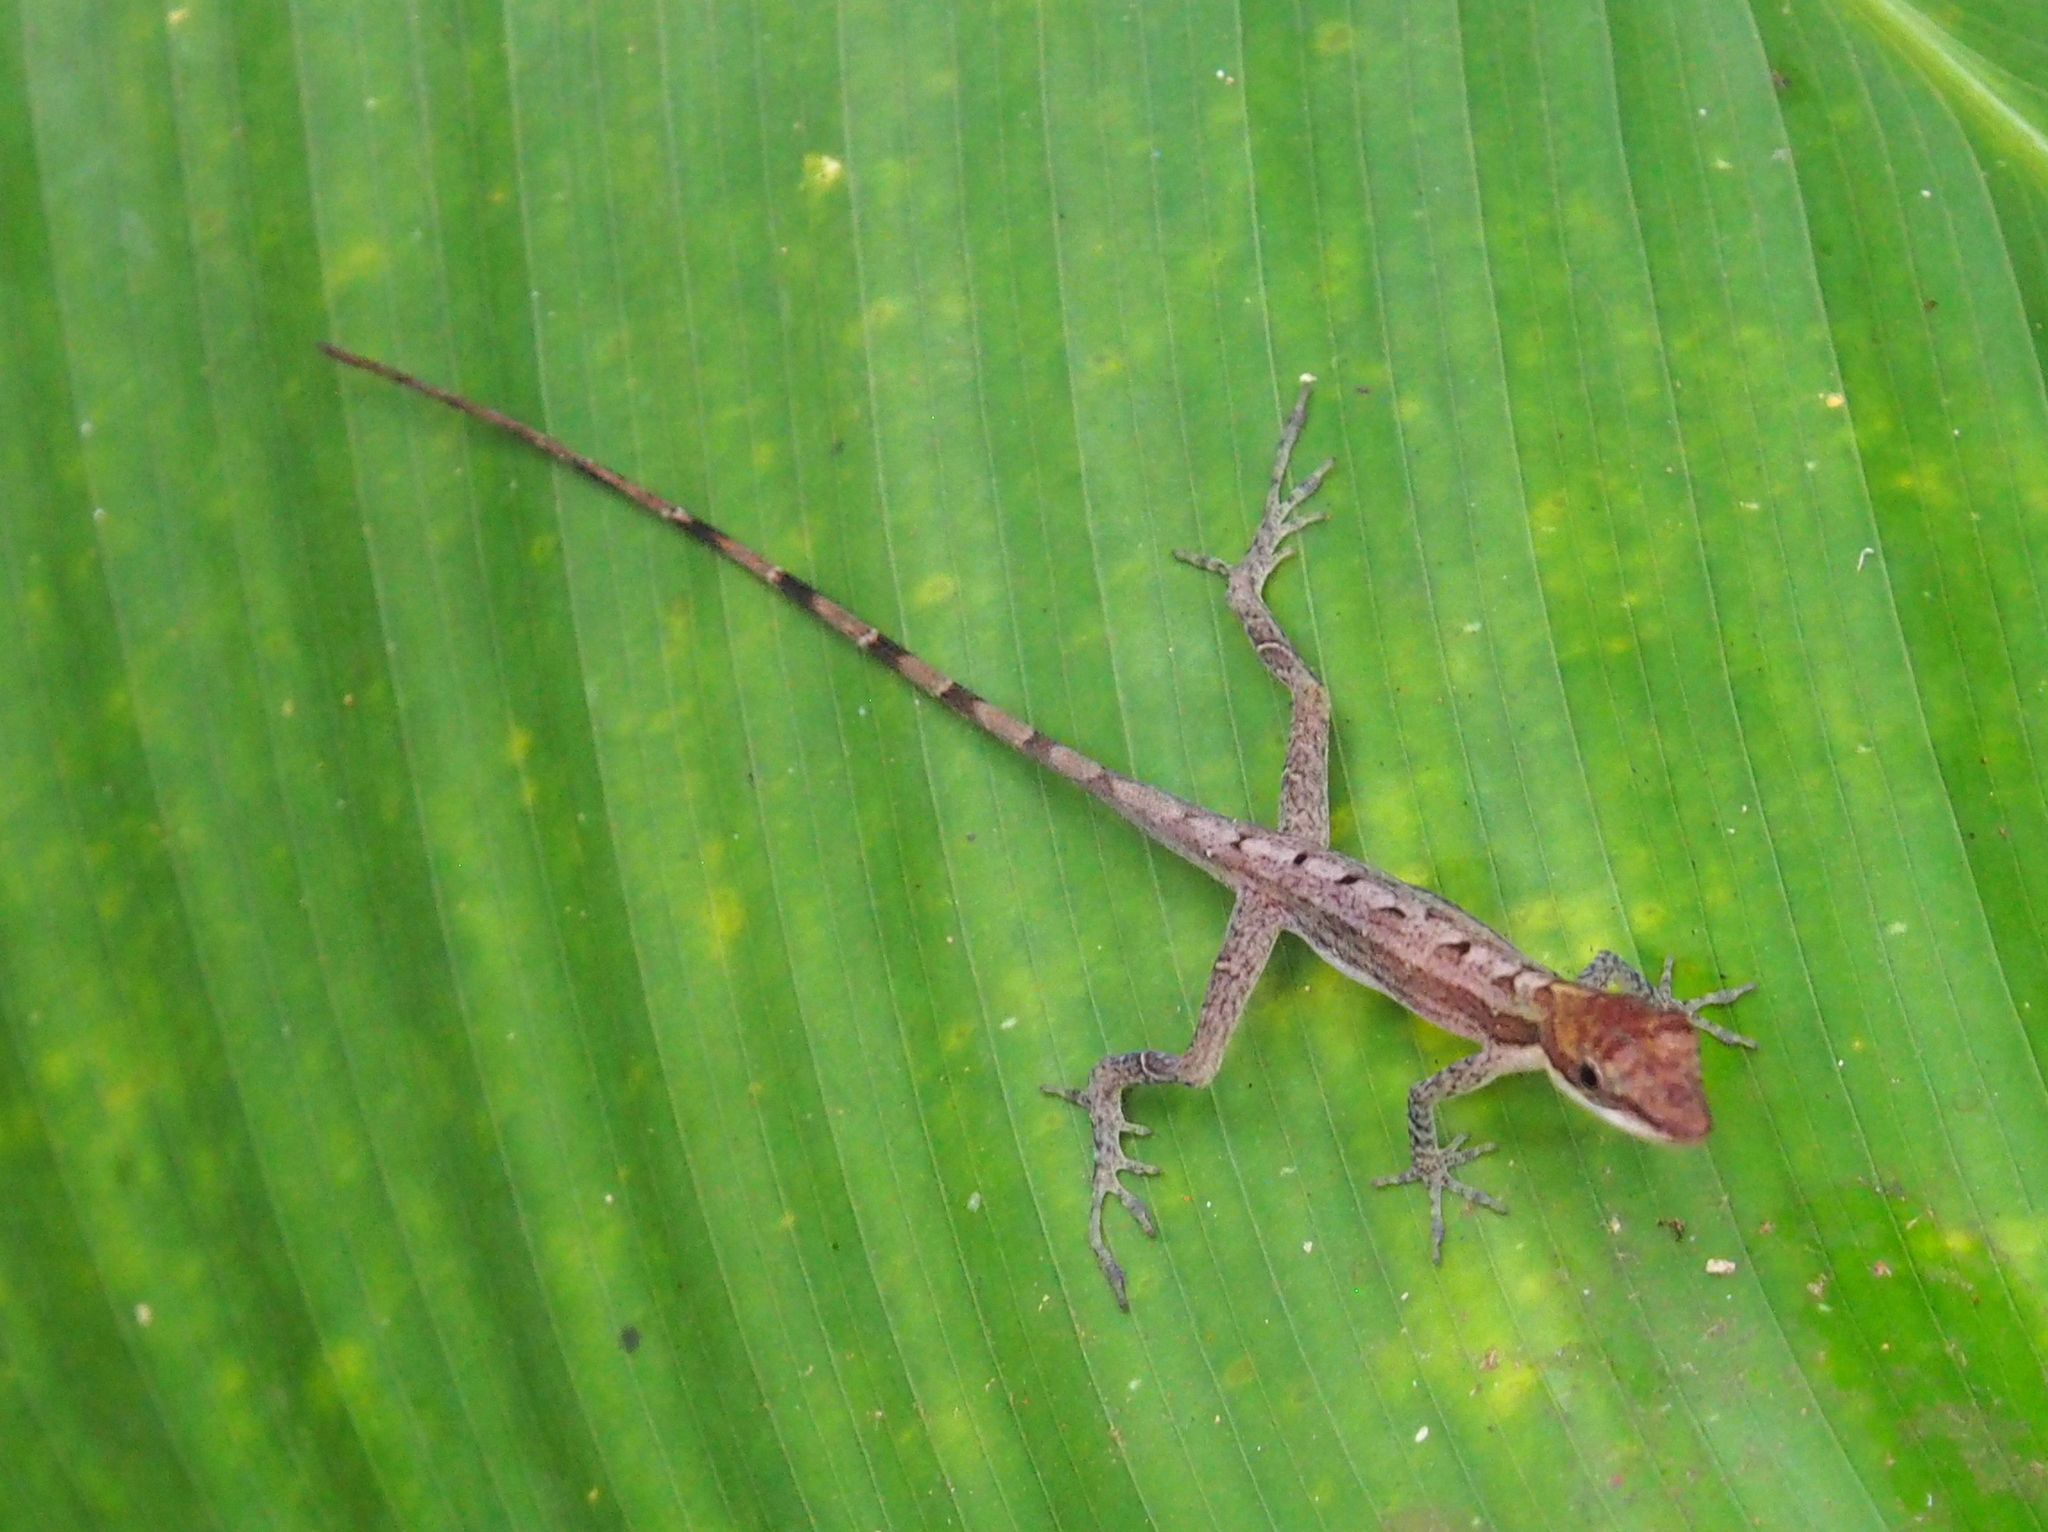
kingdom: Animalia
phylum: Chordata
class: Squamata
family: Dactyloidae
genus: Anolis
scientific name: Anolis limifrons
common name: Border anole
